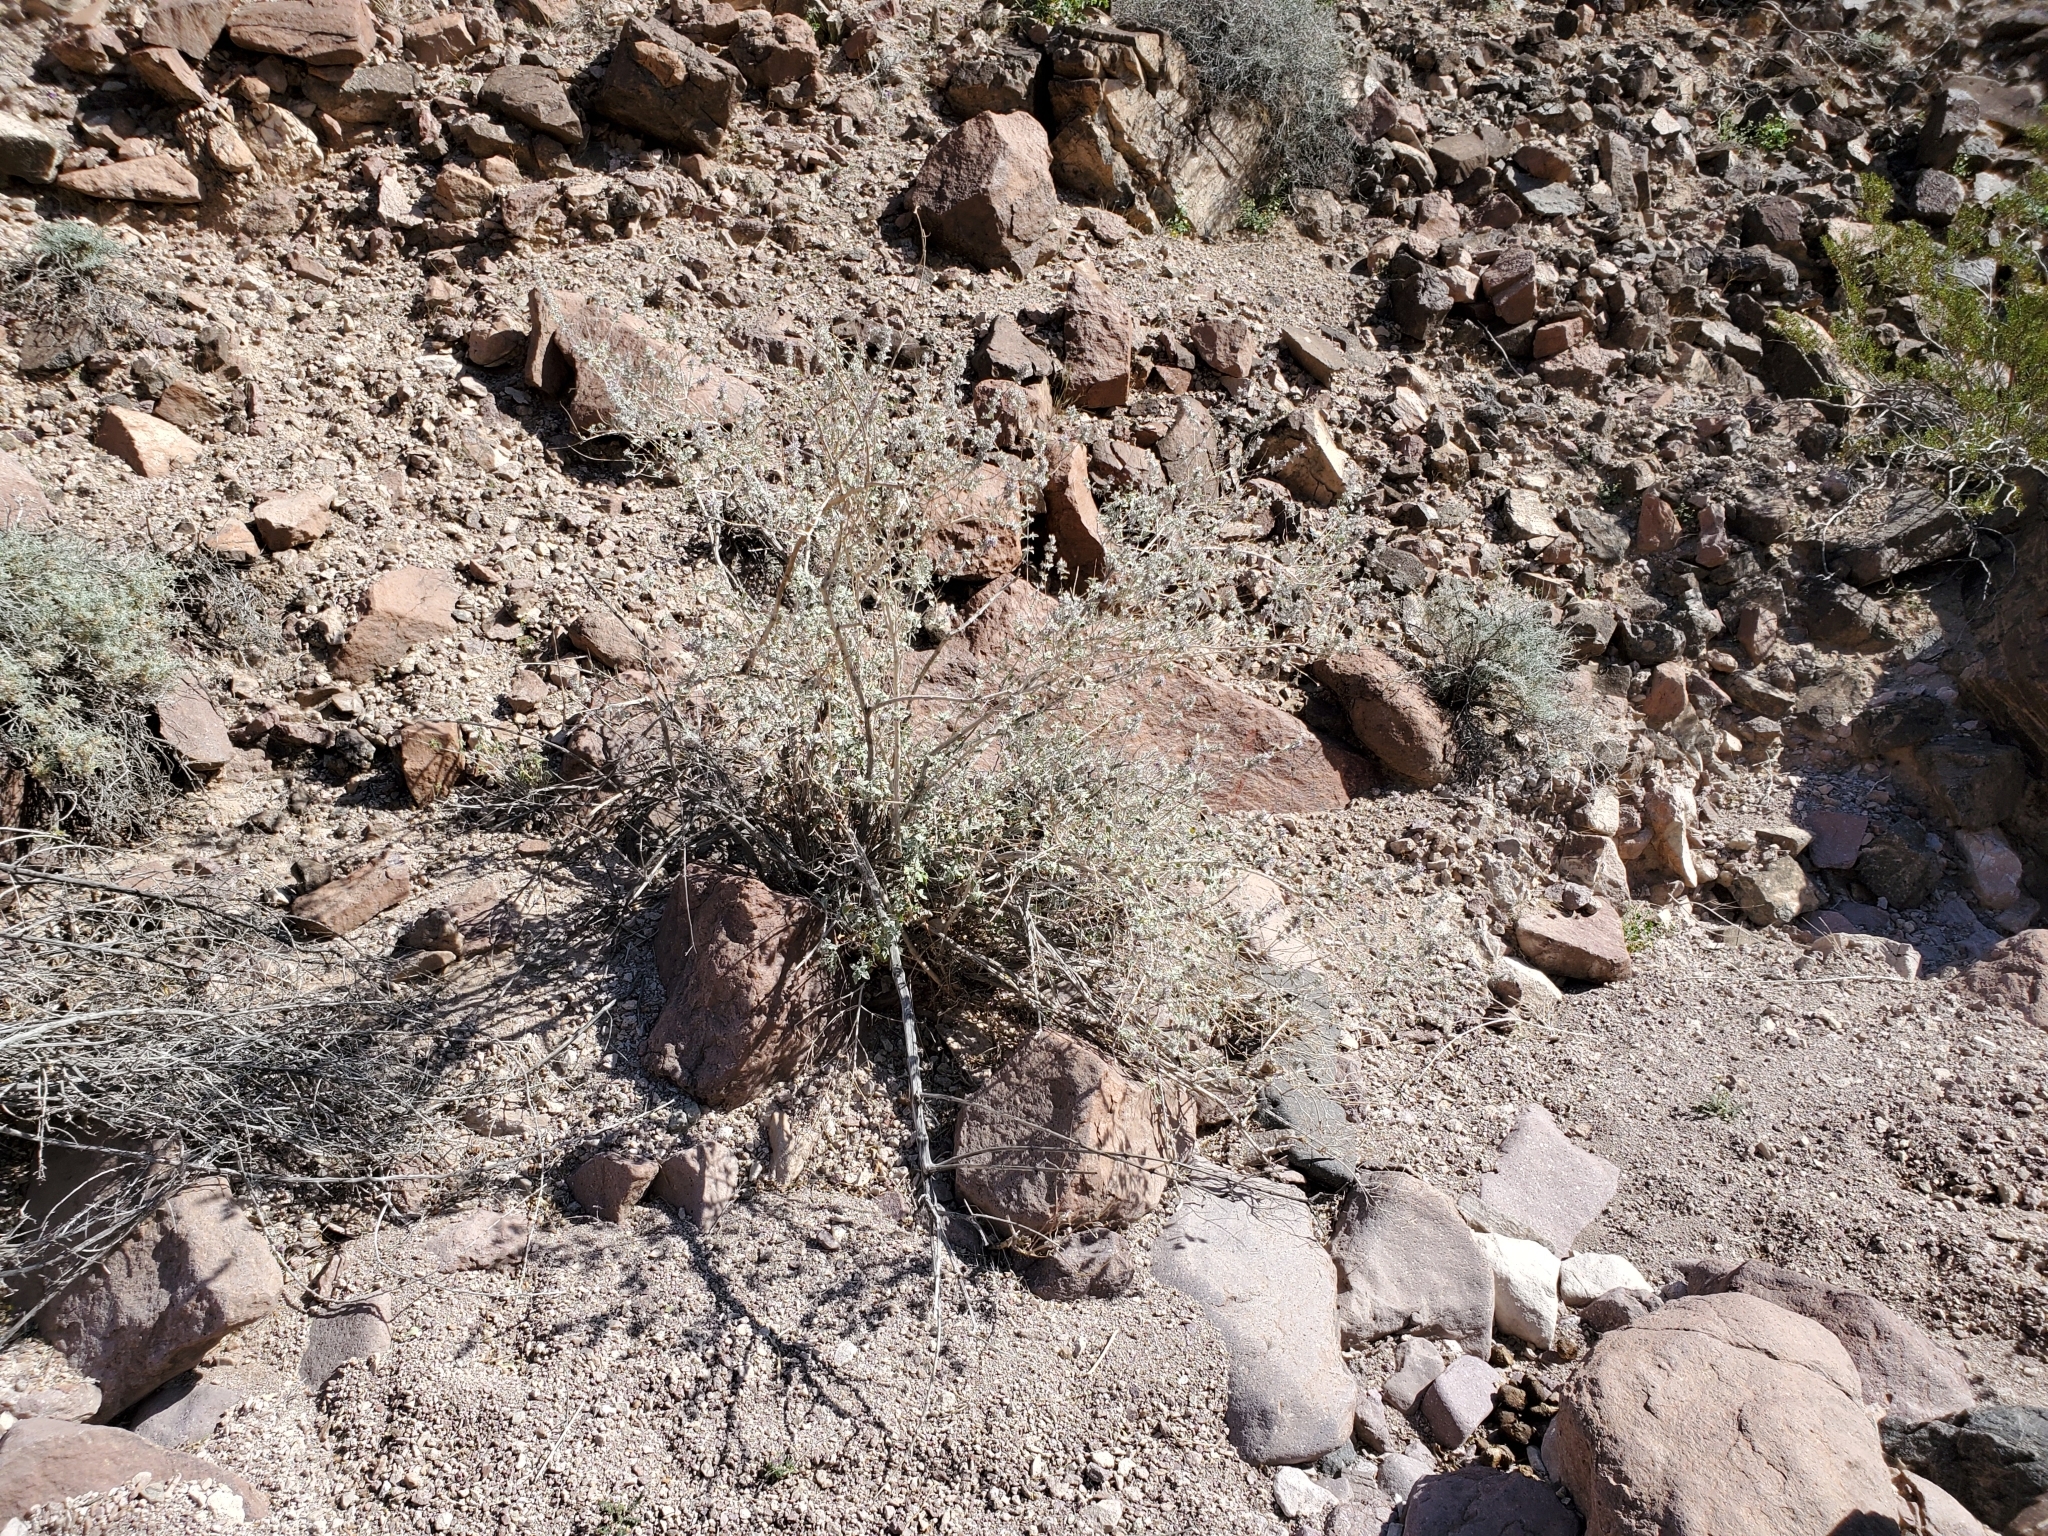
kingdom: Plantae
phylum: Tracheophyta
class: Magnoliopsida
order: Lamiales
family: Lamiaceae
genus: Condea
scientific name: Condea emoryi
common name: Chia
